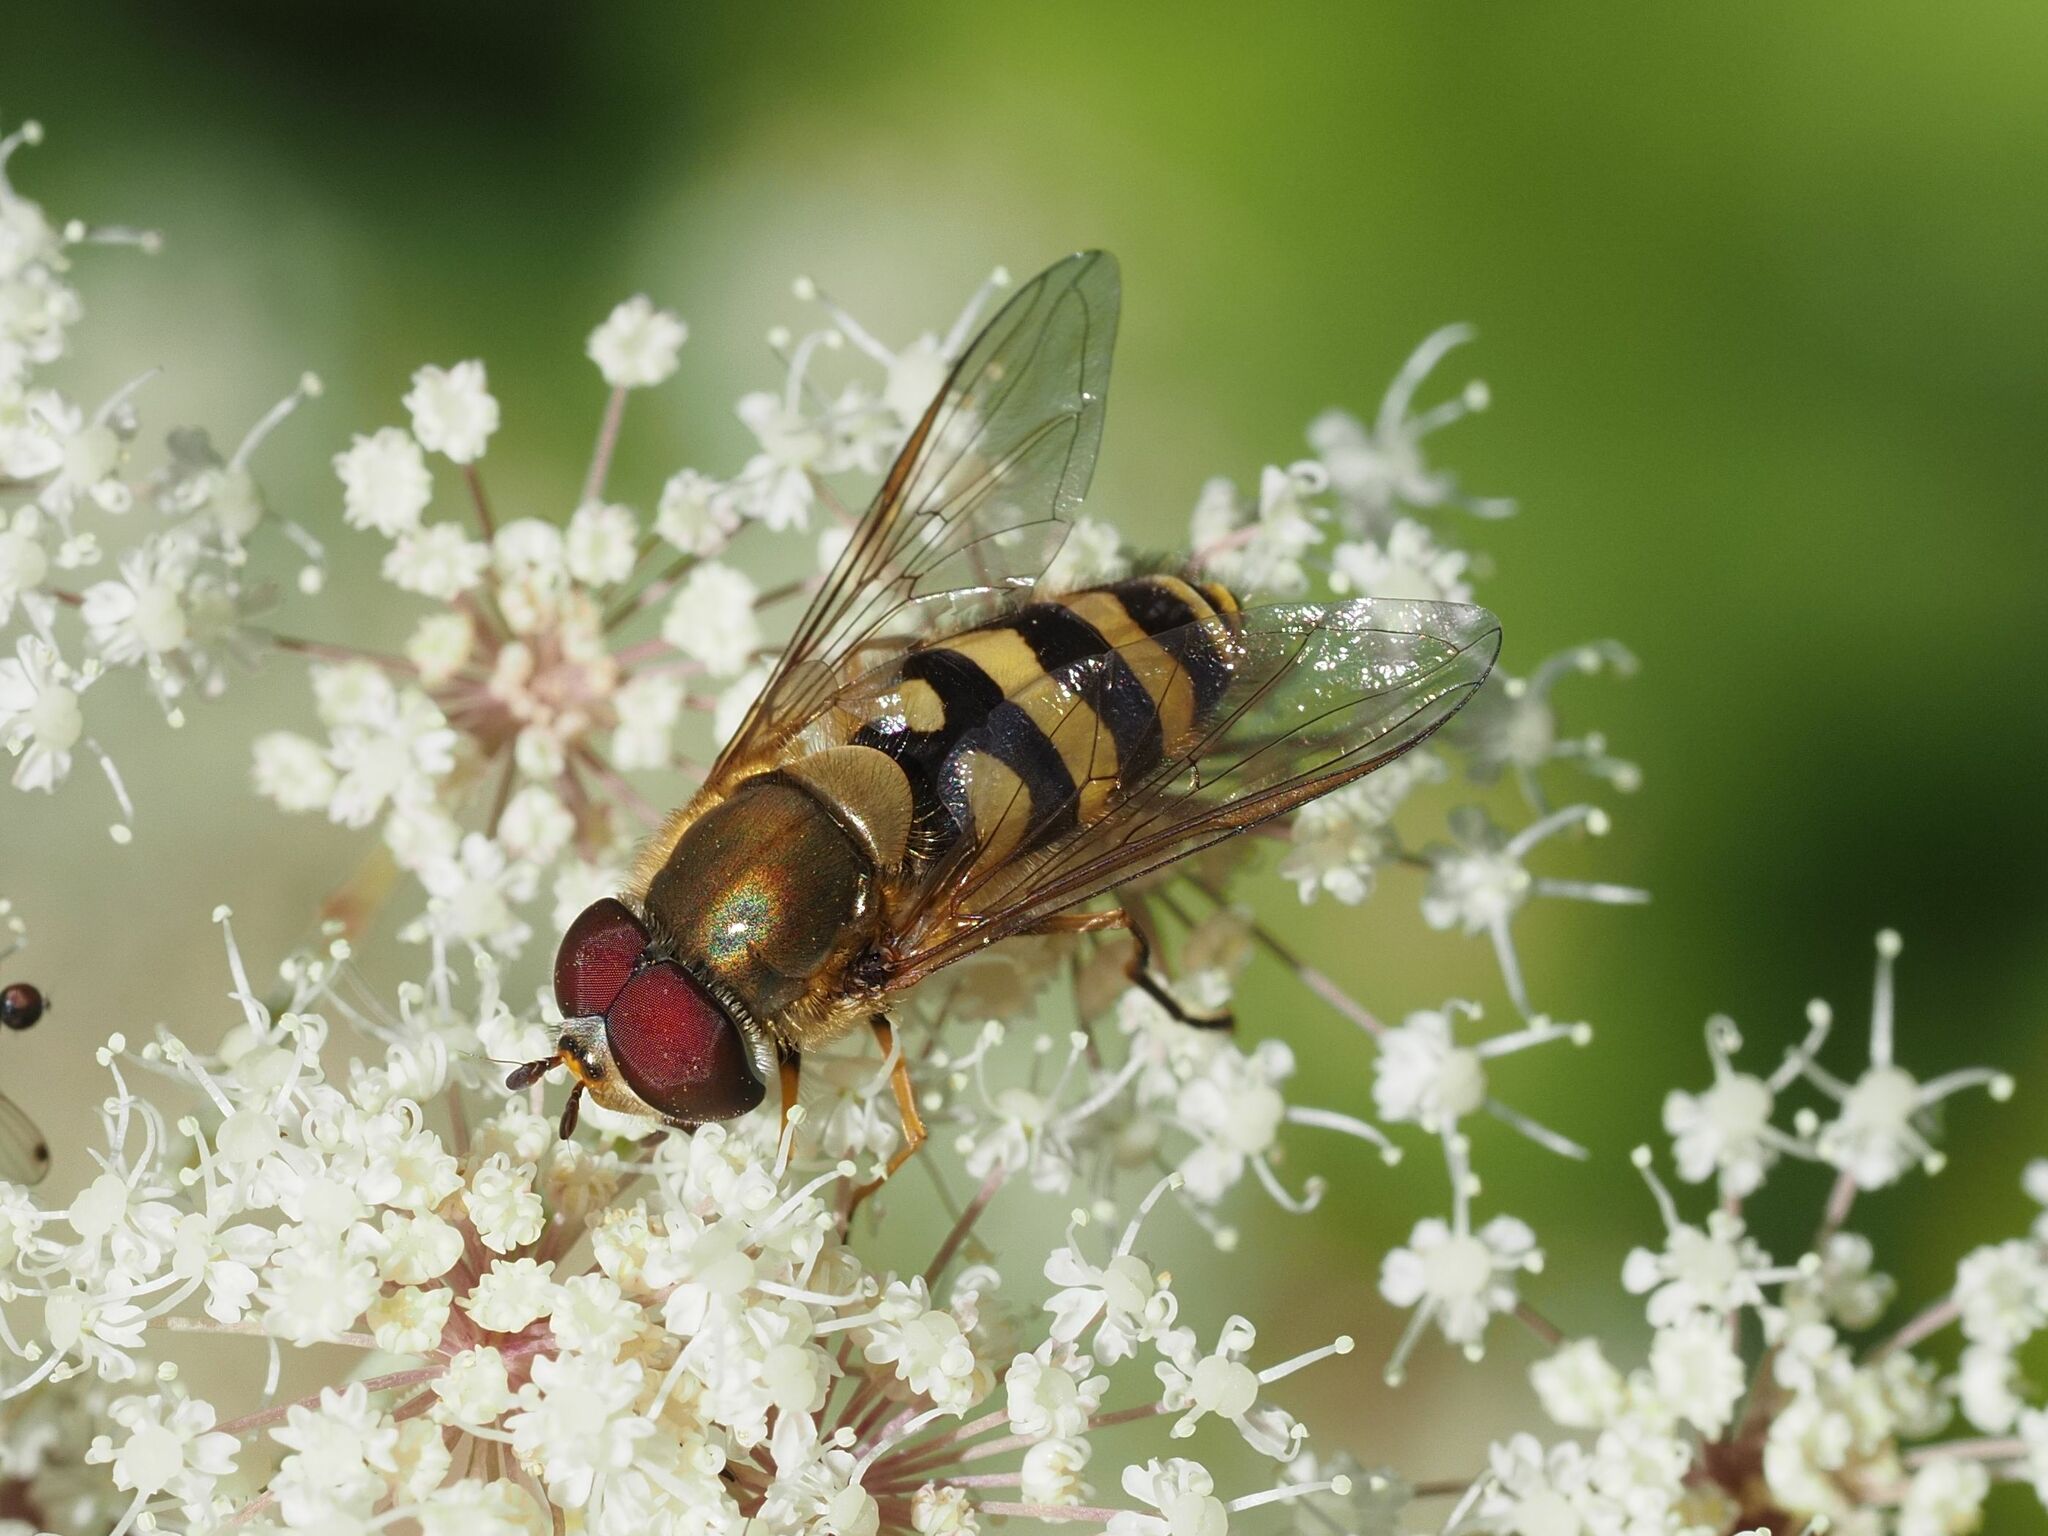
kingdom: Animalia
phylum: Arthropoda
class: Insecta
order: Diptera
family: Syrphidae
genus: Syrphus
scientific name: Syrphus torvus
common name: Hairy-eyed flower fly
